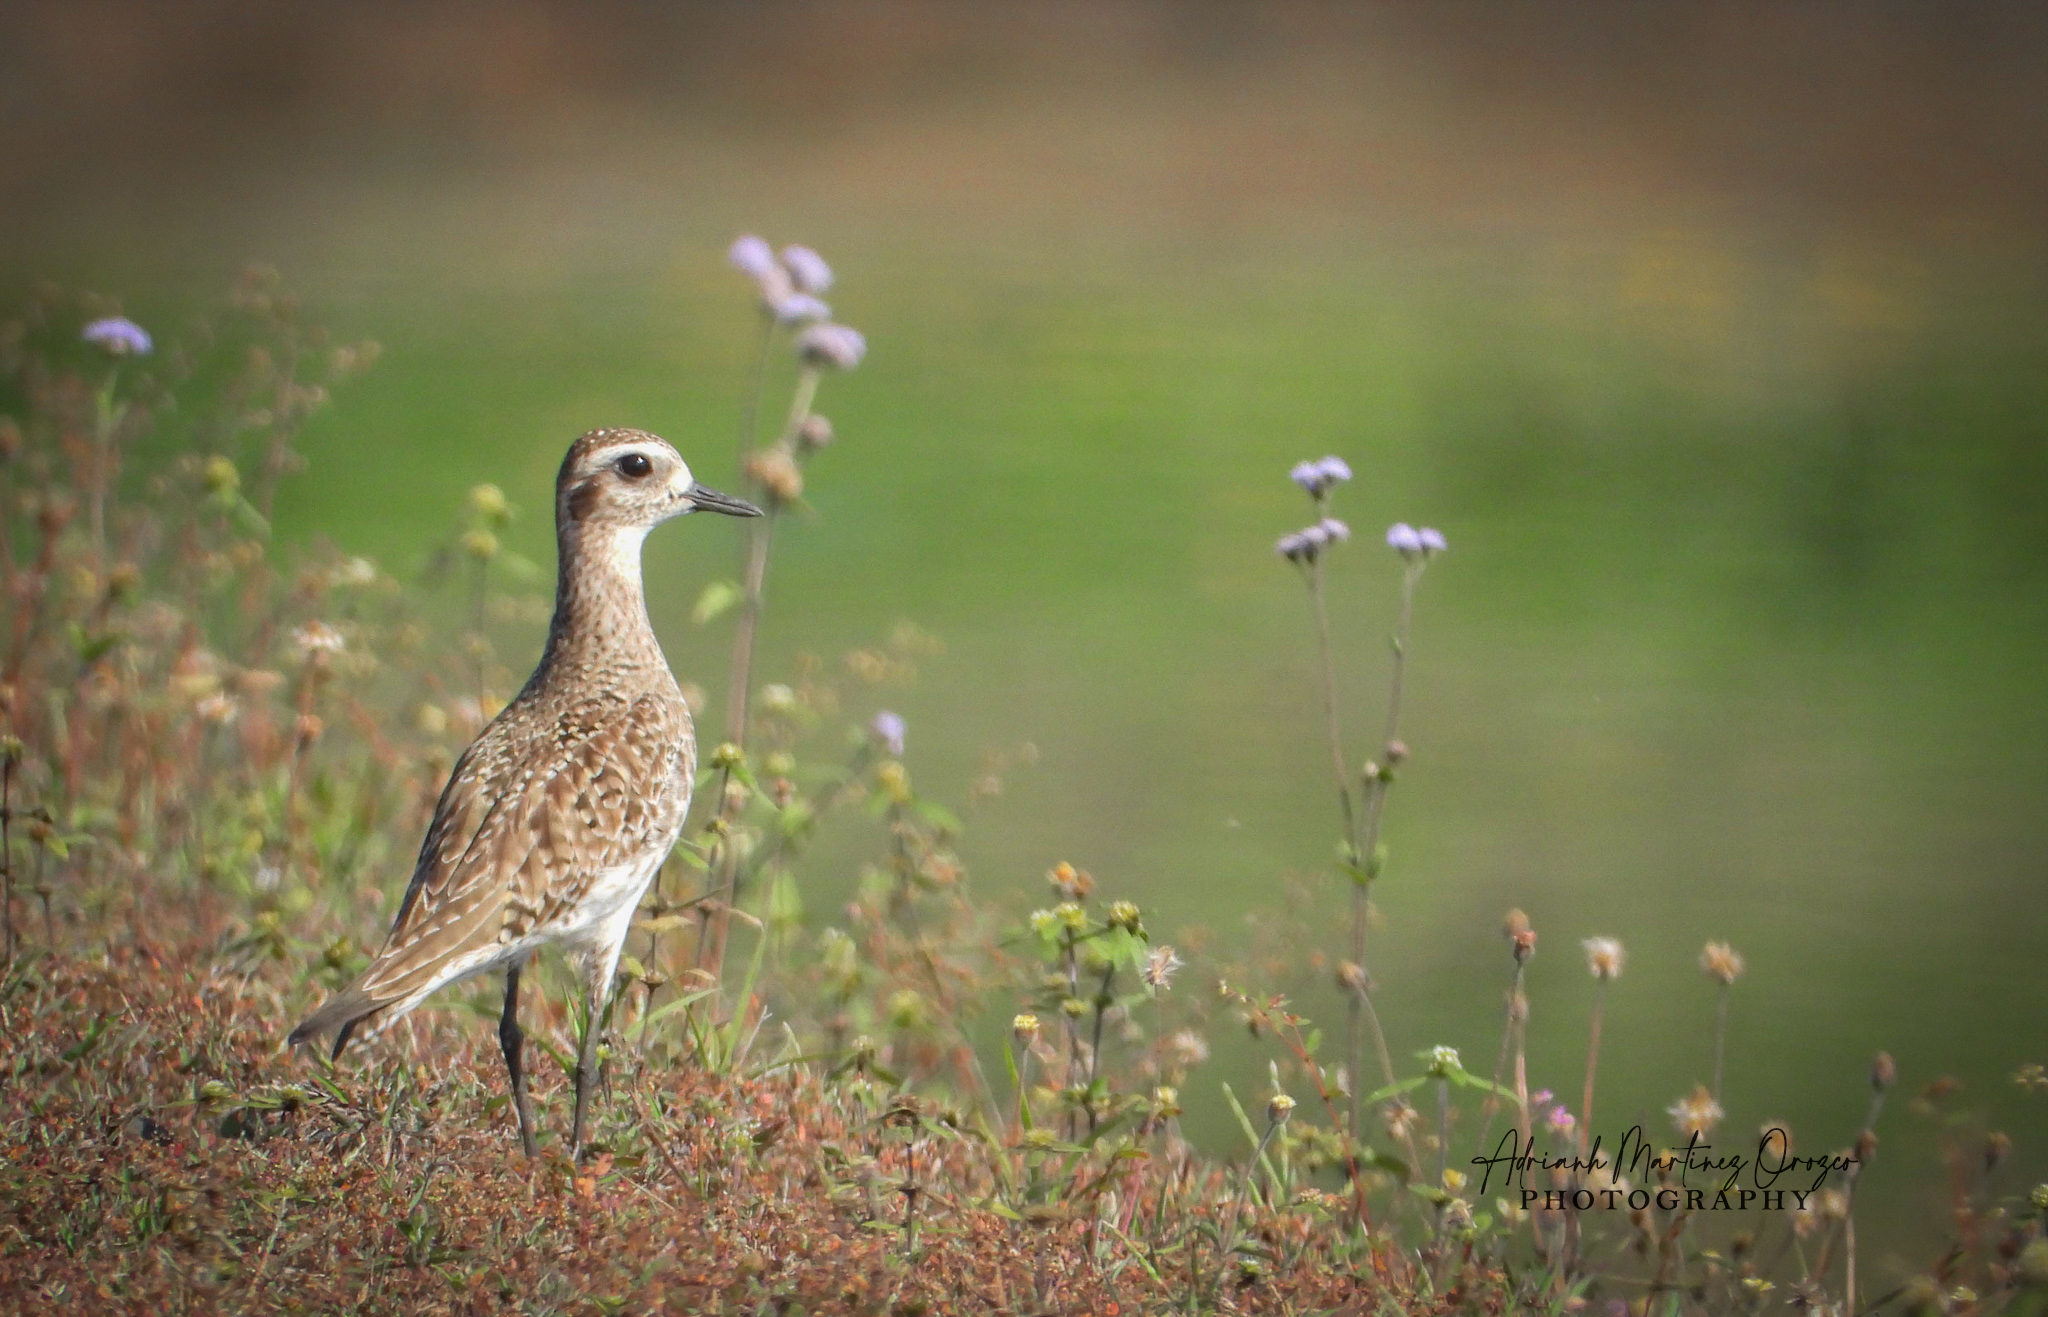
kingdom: Animalia
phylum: Chordata
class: Aves
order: Charadriiformes
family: Charadriidae
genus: Pluvialis
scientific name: Pluvialis dominica
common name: American golden plover
